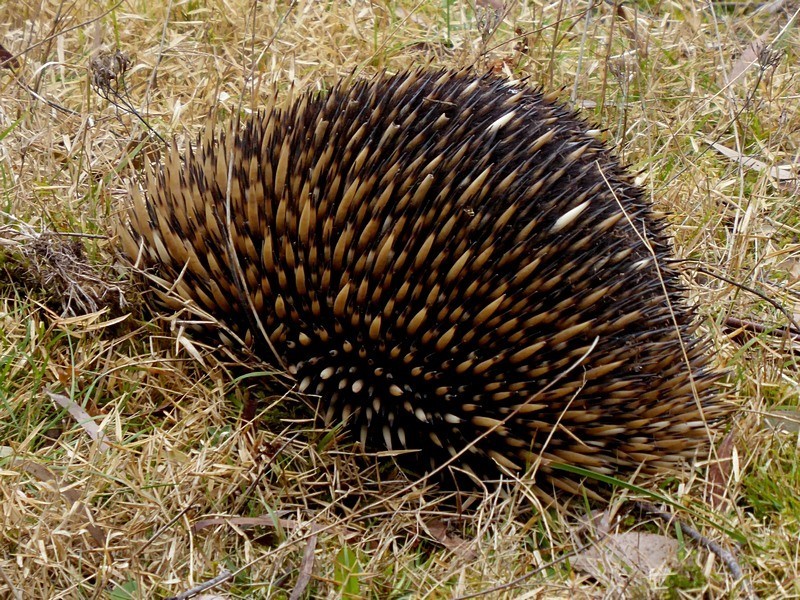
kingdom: Animalia
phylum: Chordata
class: Mammalia
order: Monotremata
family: Tachyglossidae
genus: Tachyglossus
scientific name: Tachyglossus aculeatus
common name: Short-beaked echidna
